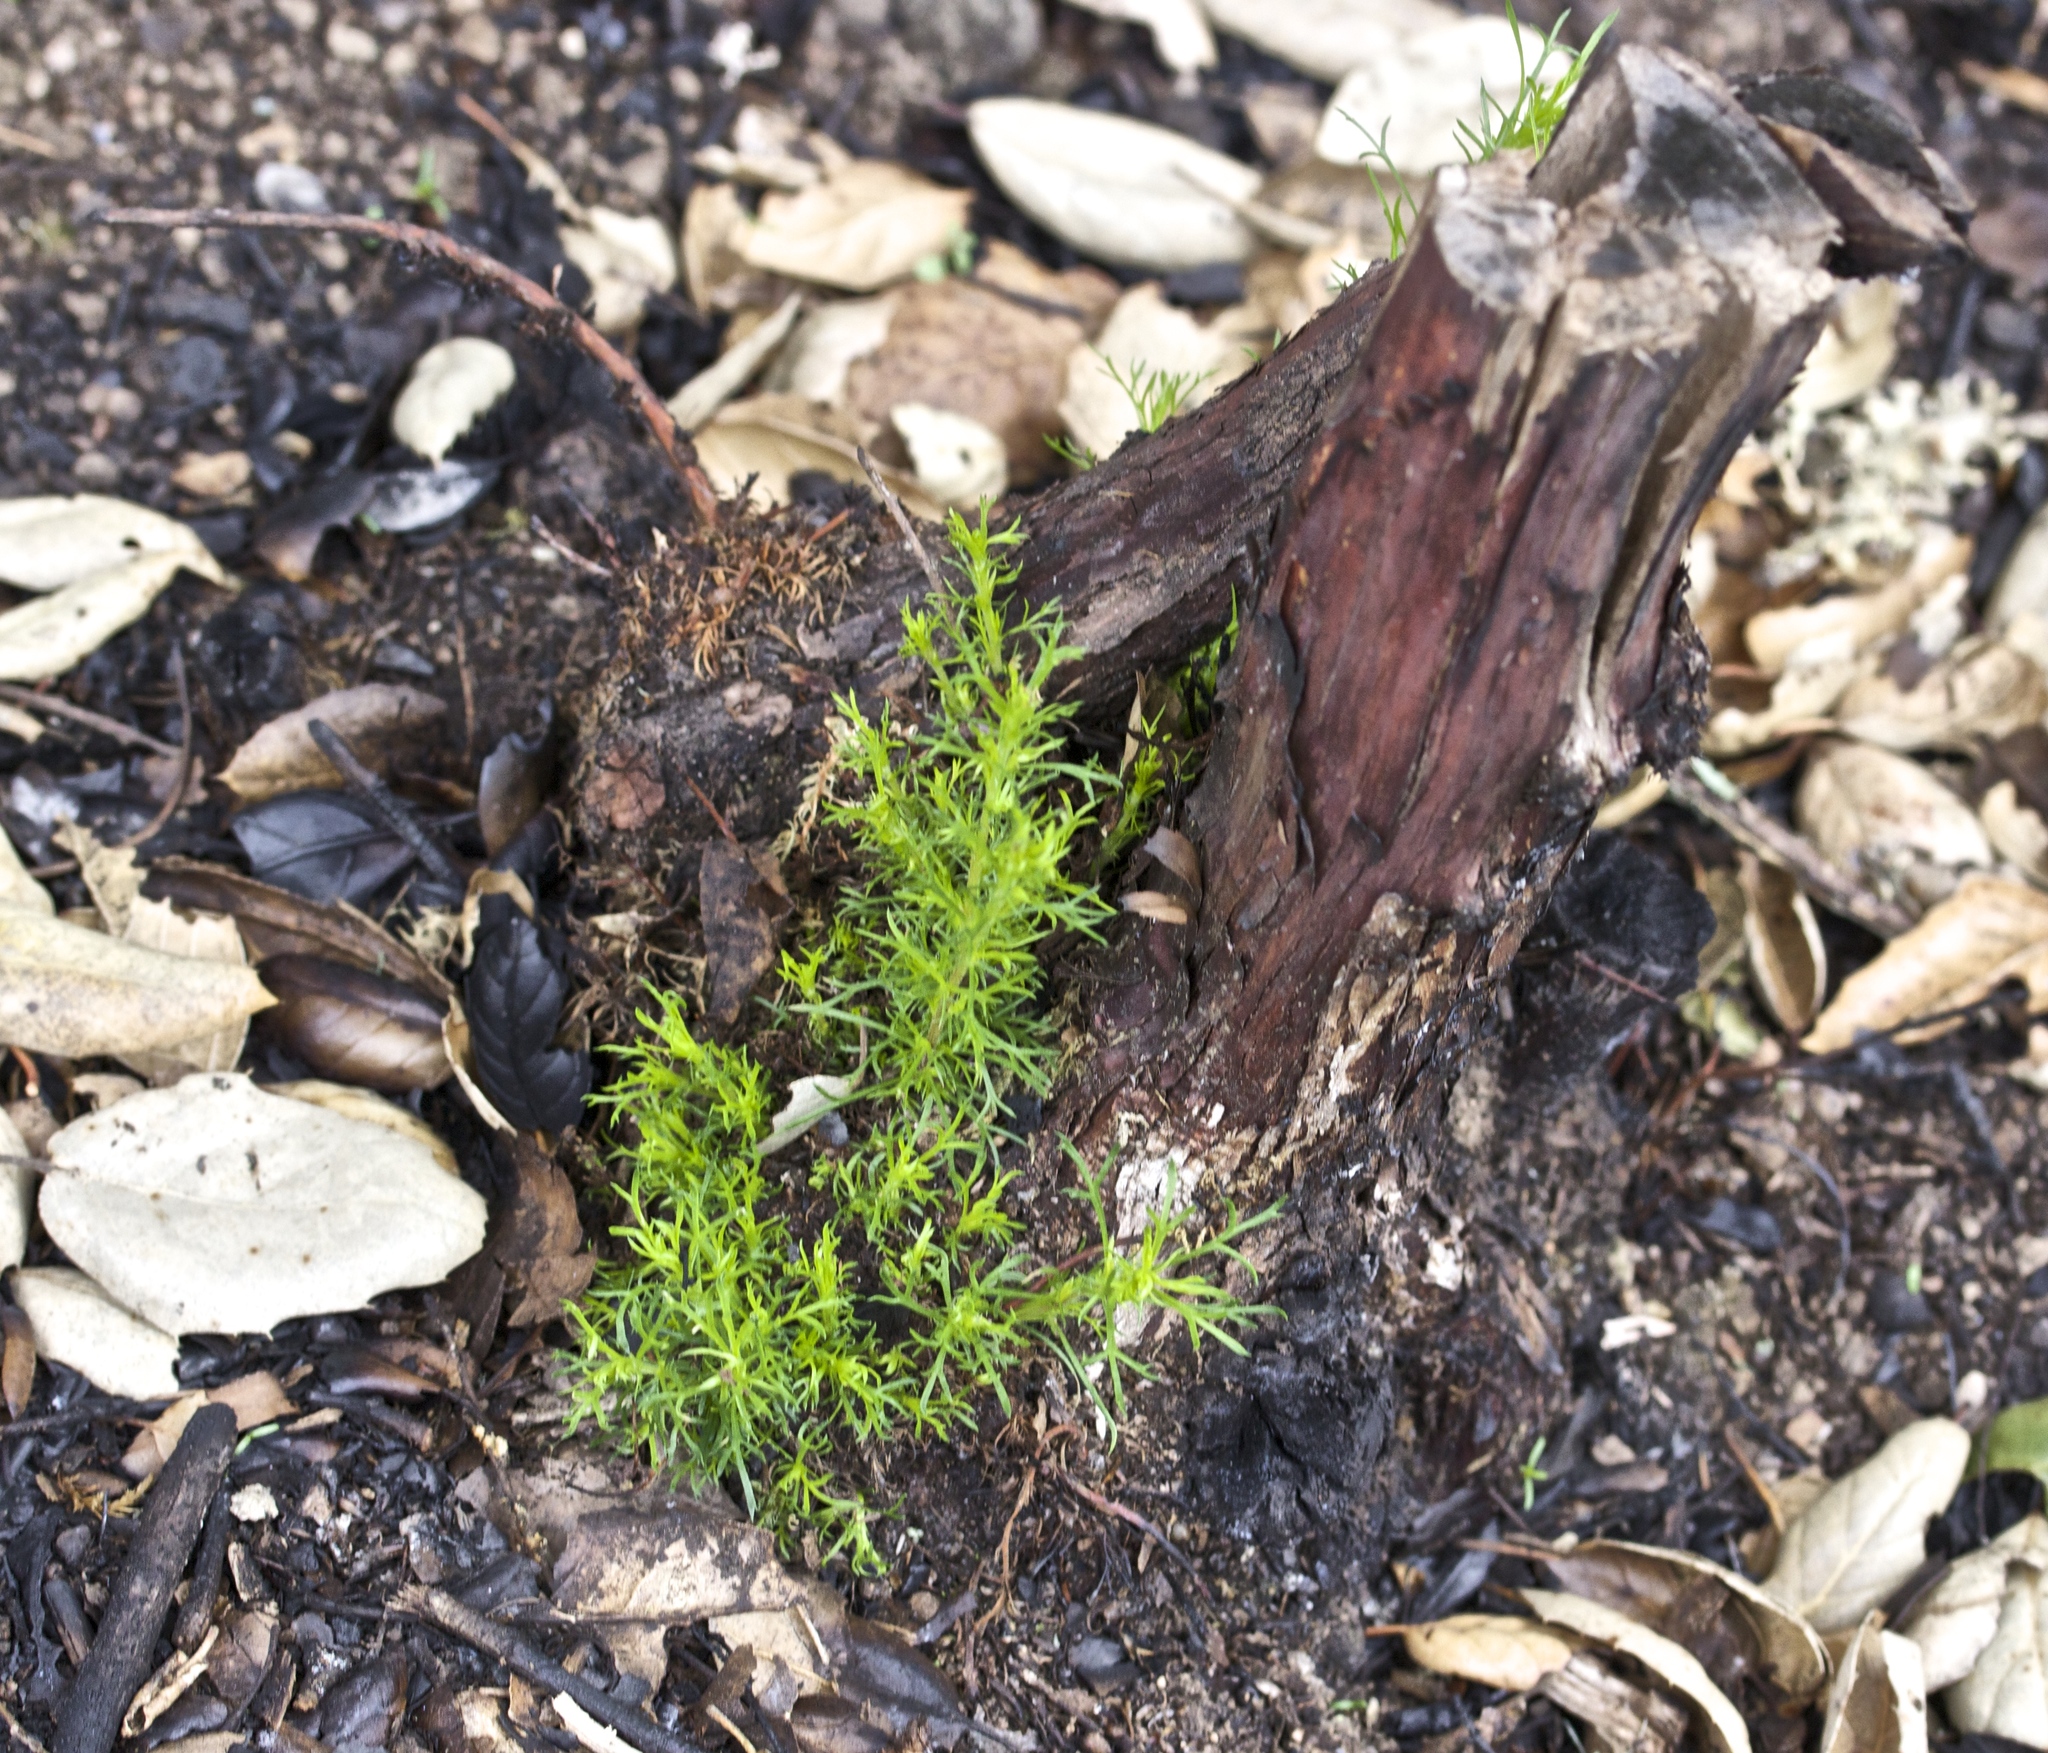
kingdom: Plantae
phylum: Tracheophyta
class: Magnoliopsida
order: Rosales
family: Rosaceae
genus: Adenostoma
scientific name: Adenostoma fasciculatum
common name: Chamise
